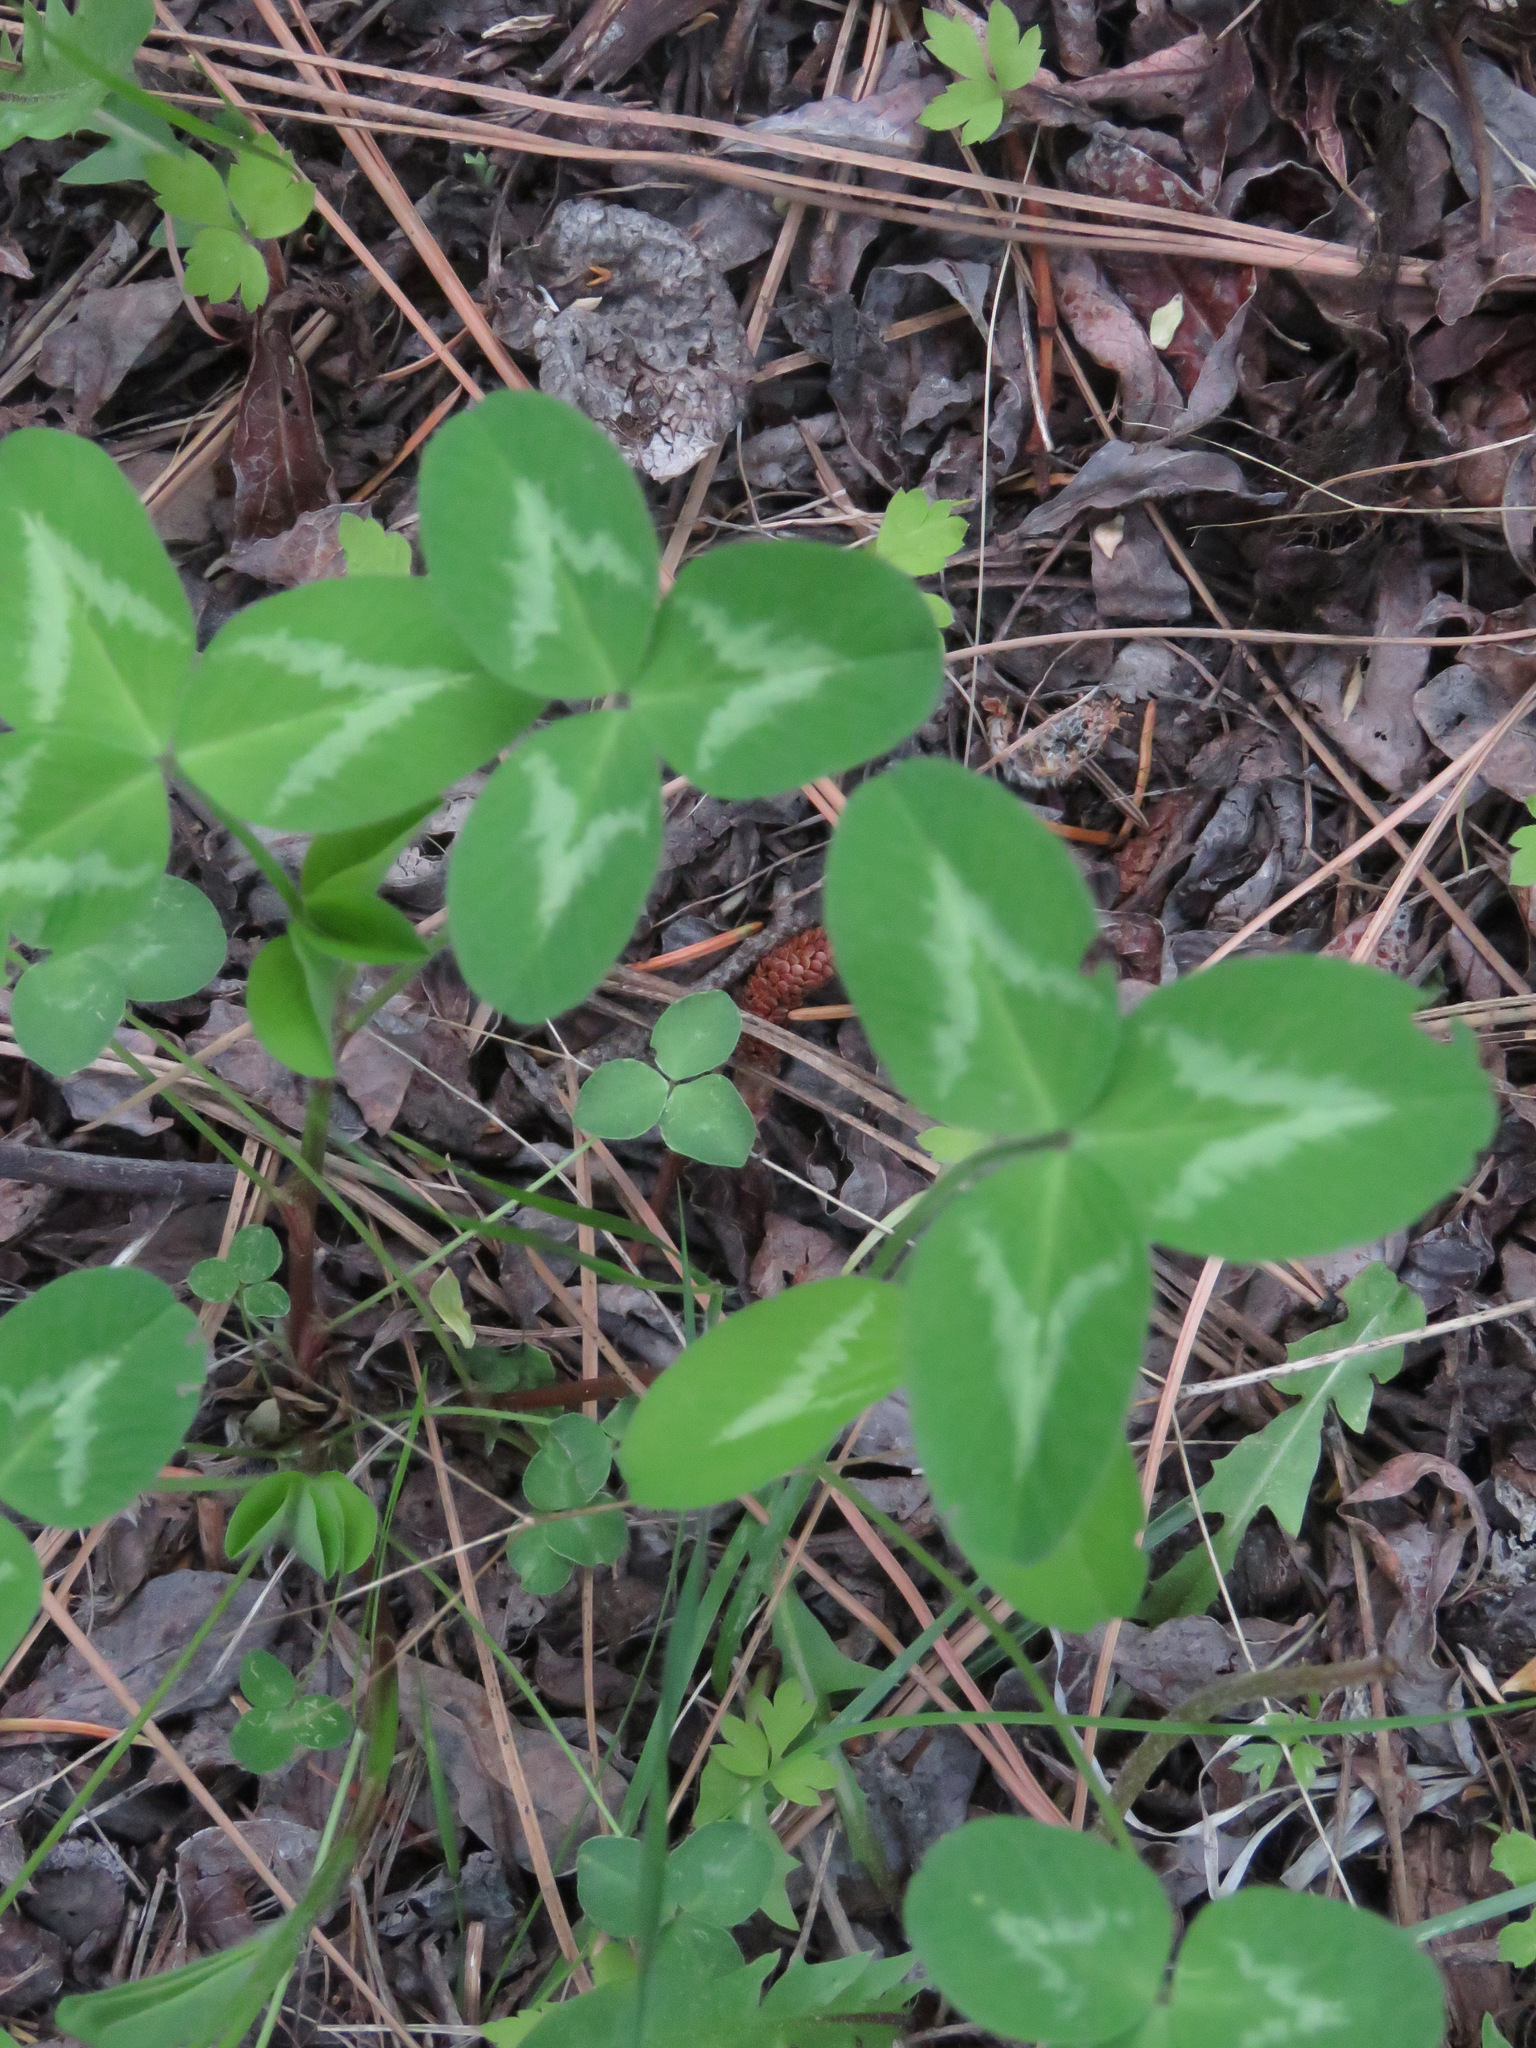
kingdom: Plantae
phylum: Tracheophyta
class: Magnoliopsida
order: Fabales
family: Fabaceae
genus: Trifolium
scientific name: Trifolium pratense
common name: Red clover
